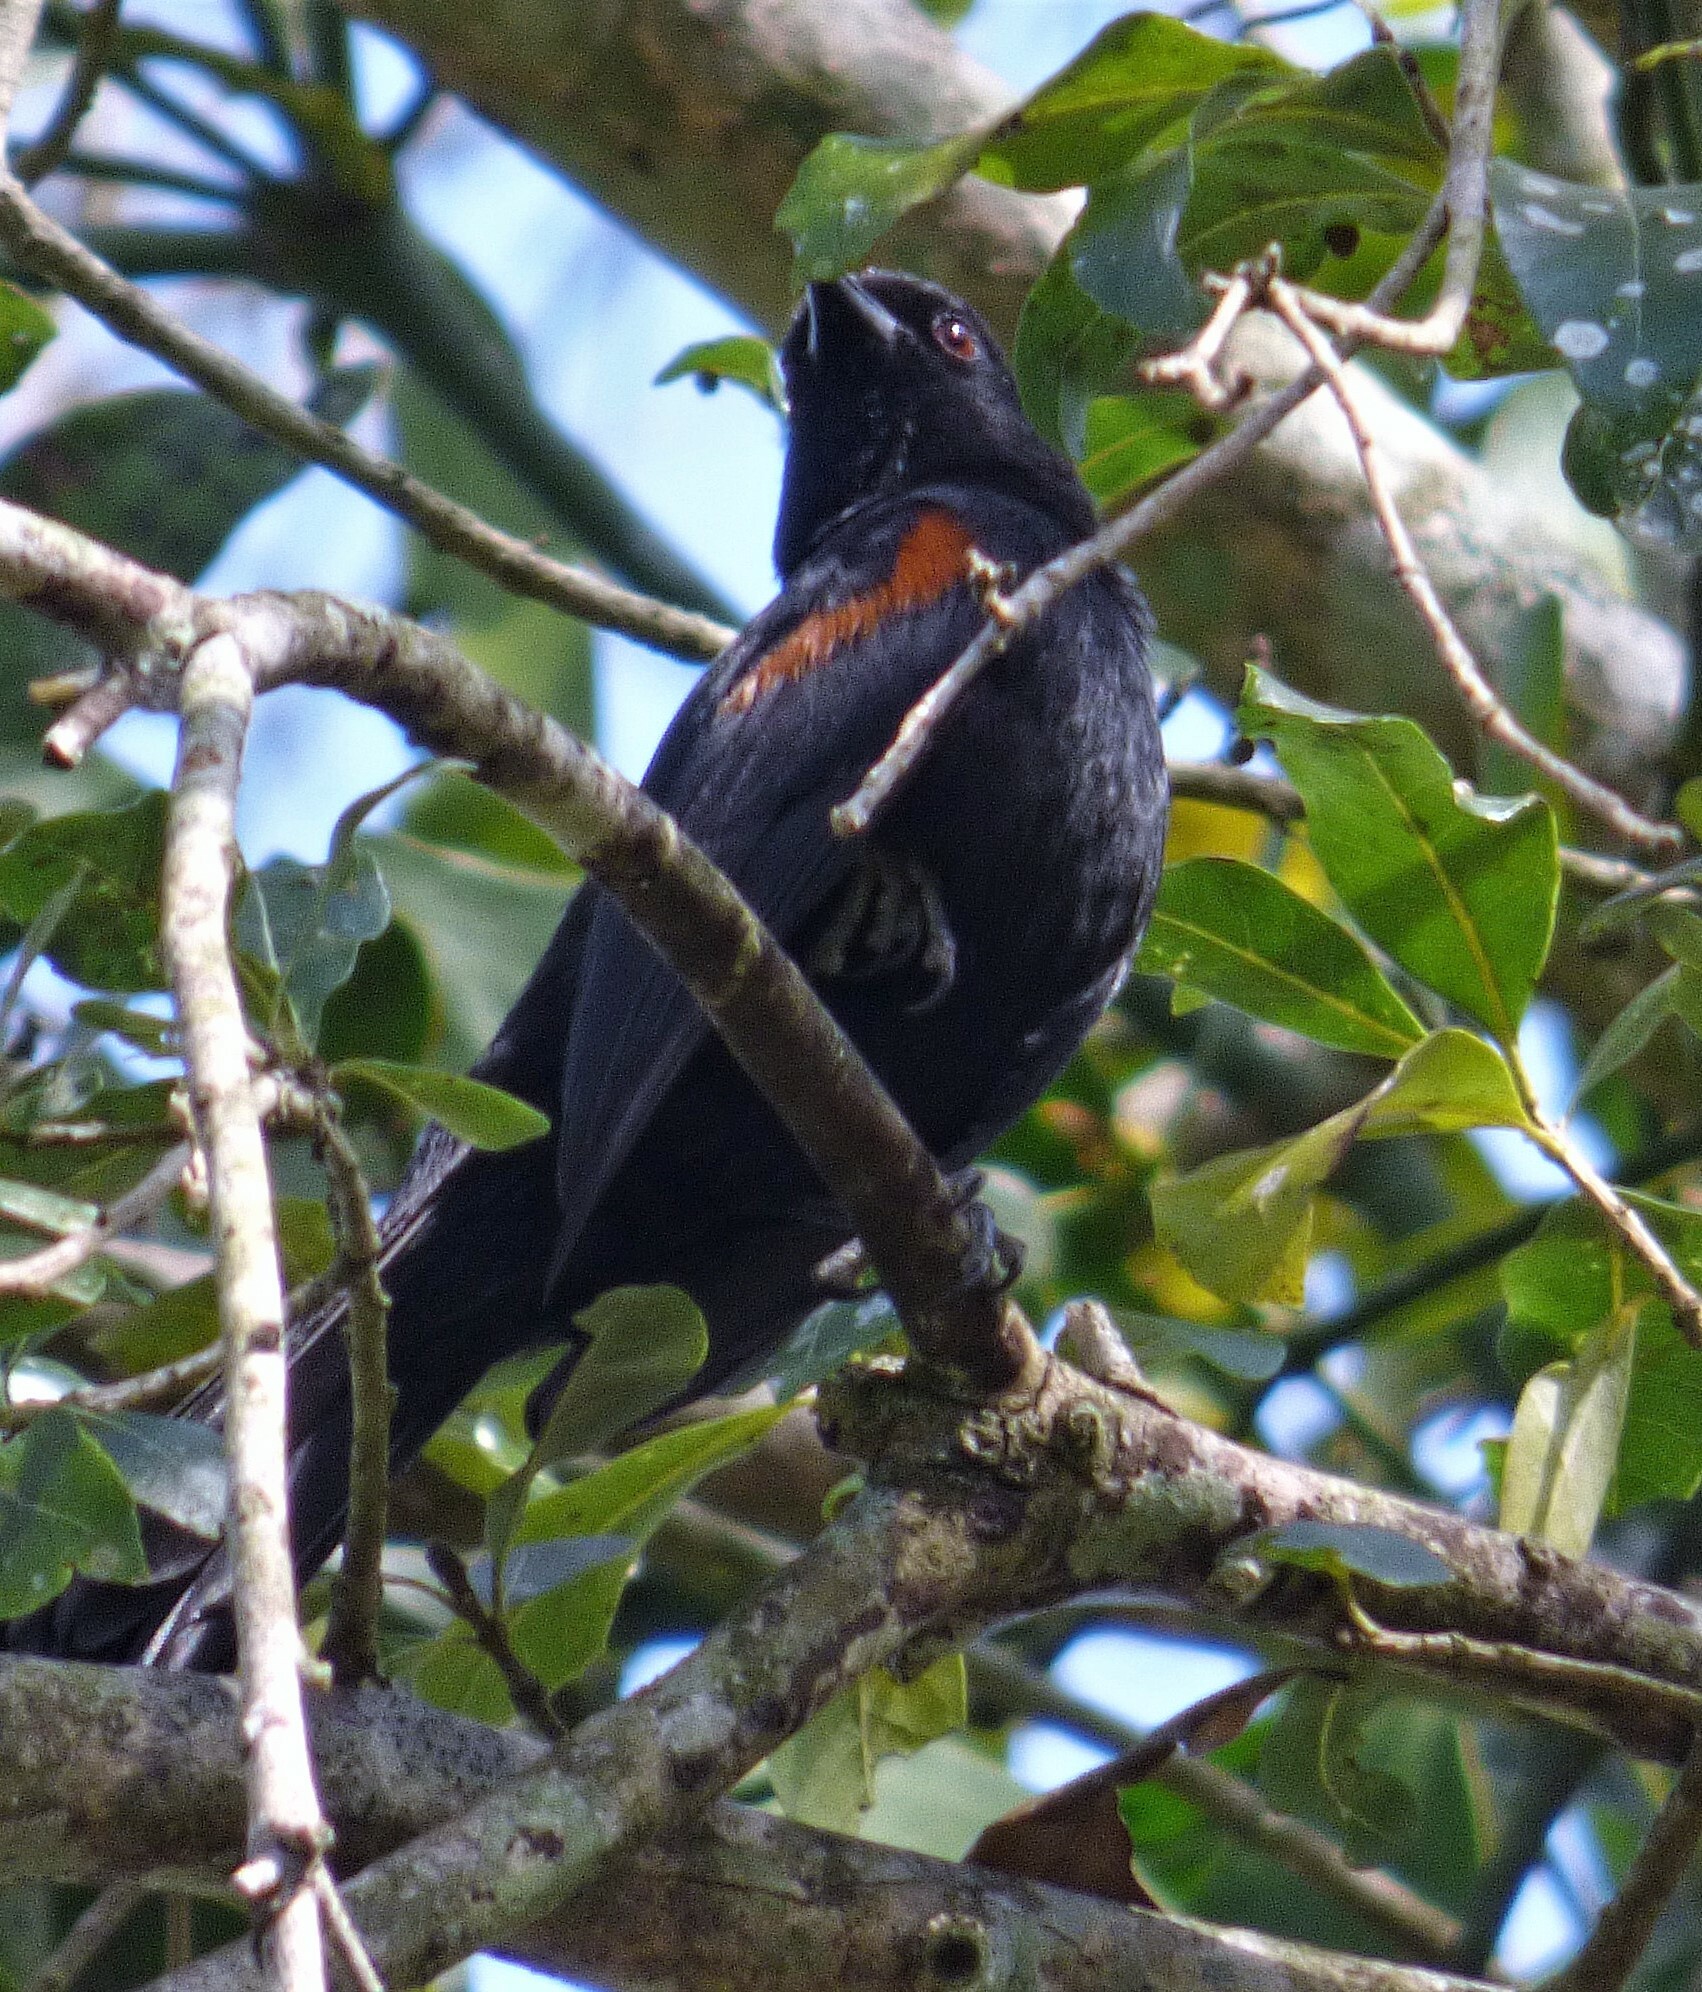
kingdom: Animalia
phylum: Chordata
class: Aves
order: Passeriformes
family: Icteridae
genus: Icterus
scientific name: Icterus cayanensis
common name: Epaulet oriole
